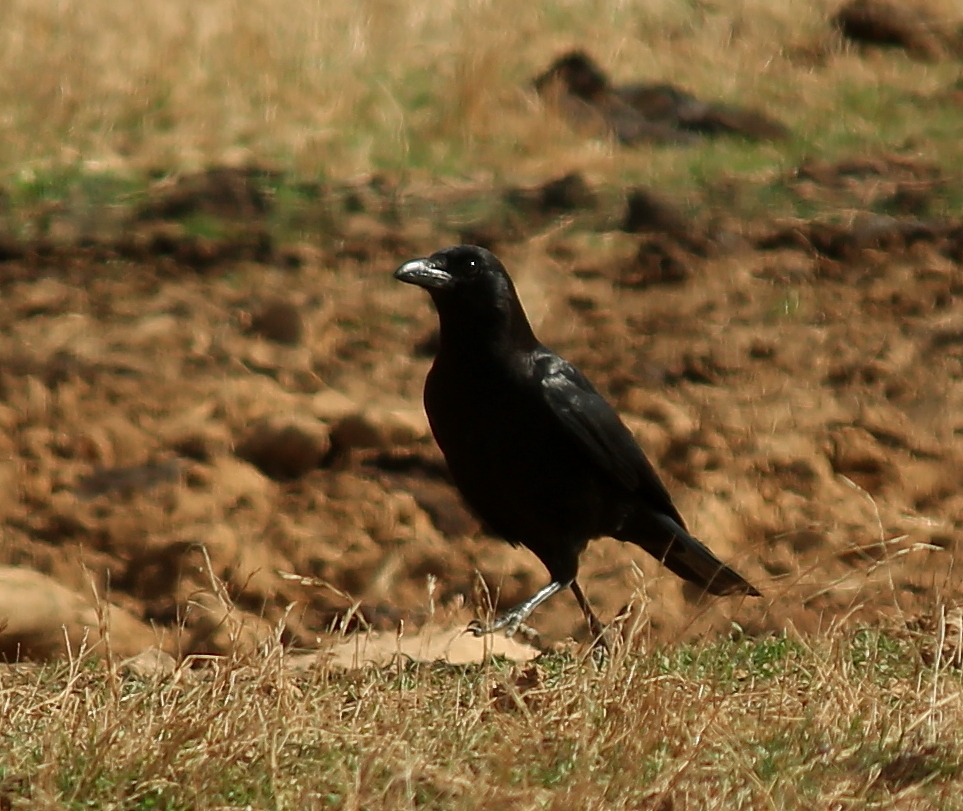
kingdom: Animalia
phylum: Chordata
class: Aves
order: Passeriformes
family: Corvidae
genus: Corvus
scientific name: Corvus brachyrhynchos
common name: American crow
